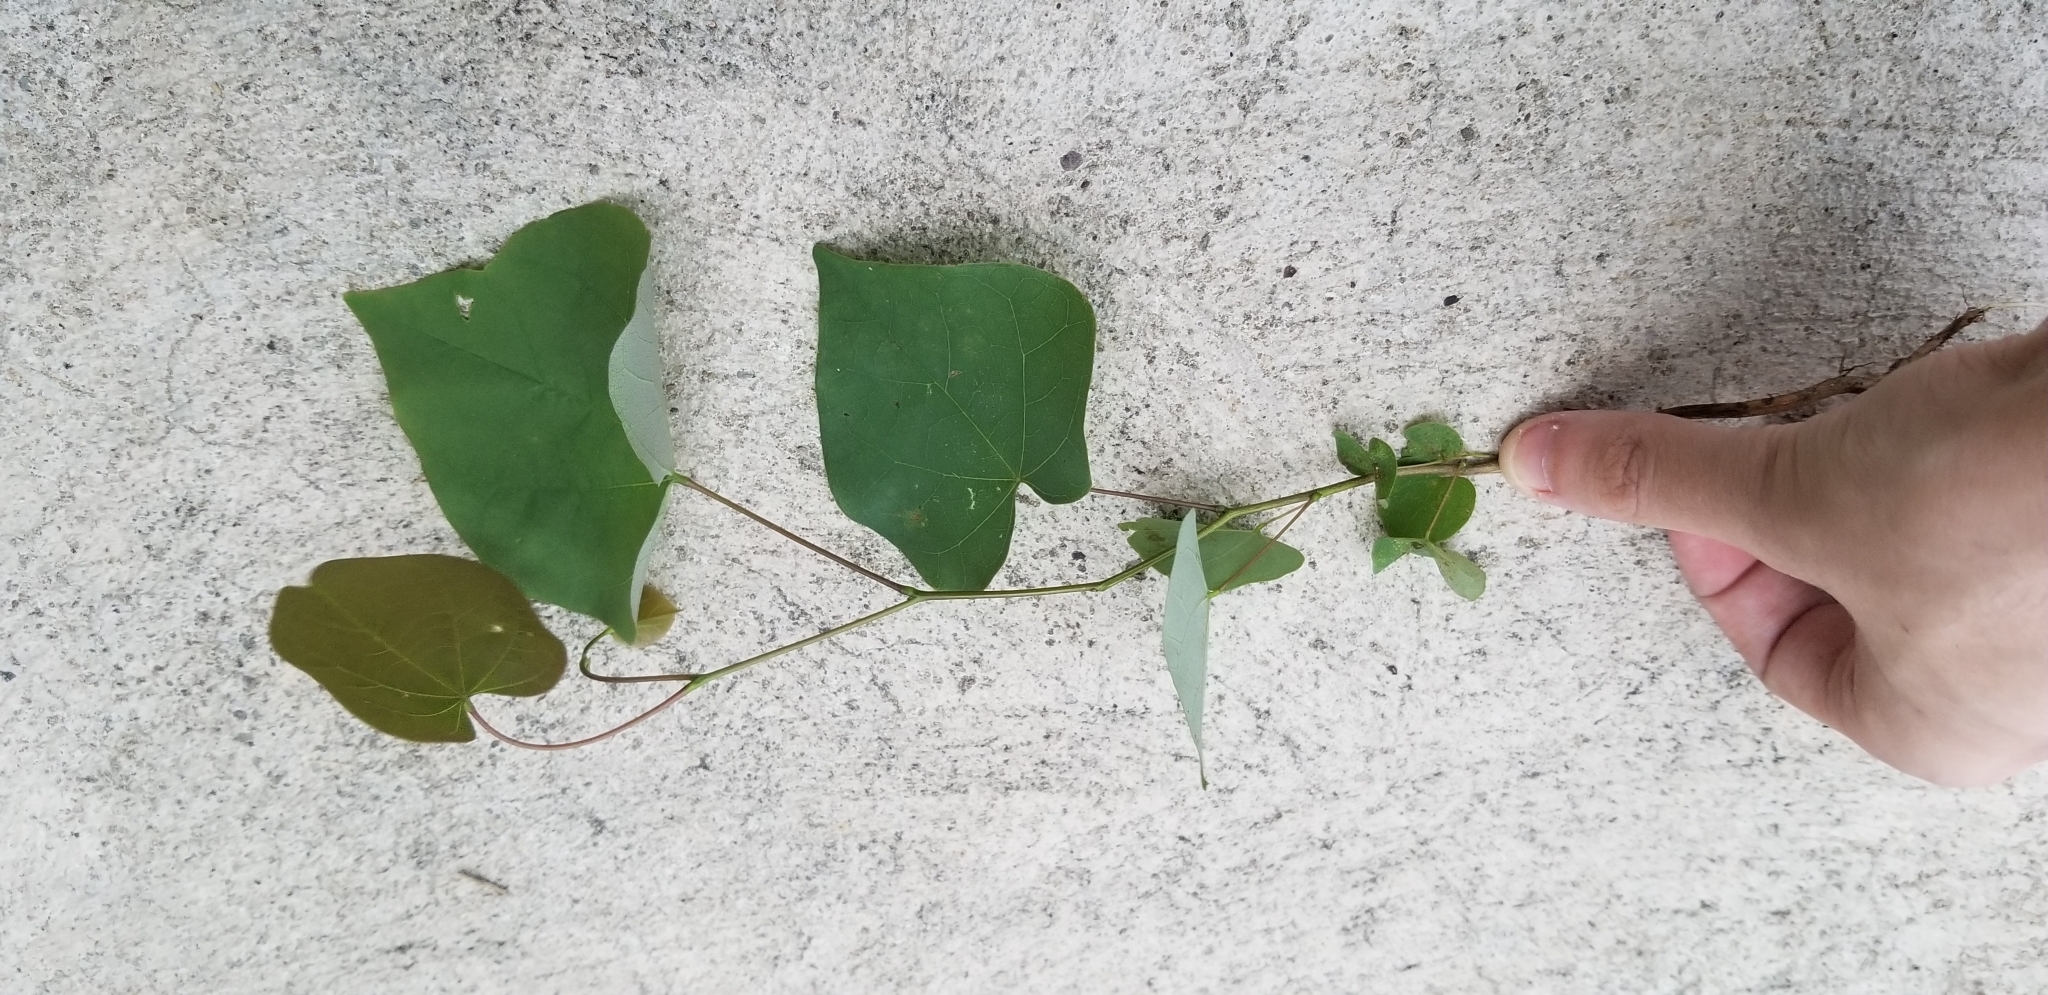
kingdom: Plantae
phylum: Tracheophyta
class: Magnoliopsida
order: Fabales
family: Fabaceae
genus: Cercis
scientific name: Cercis canadensis
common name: Eastern redbud
